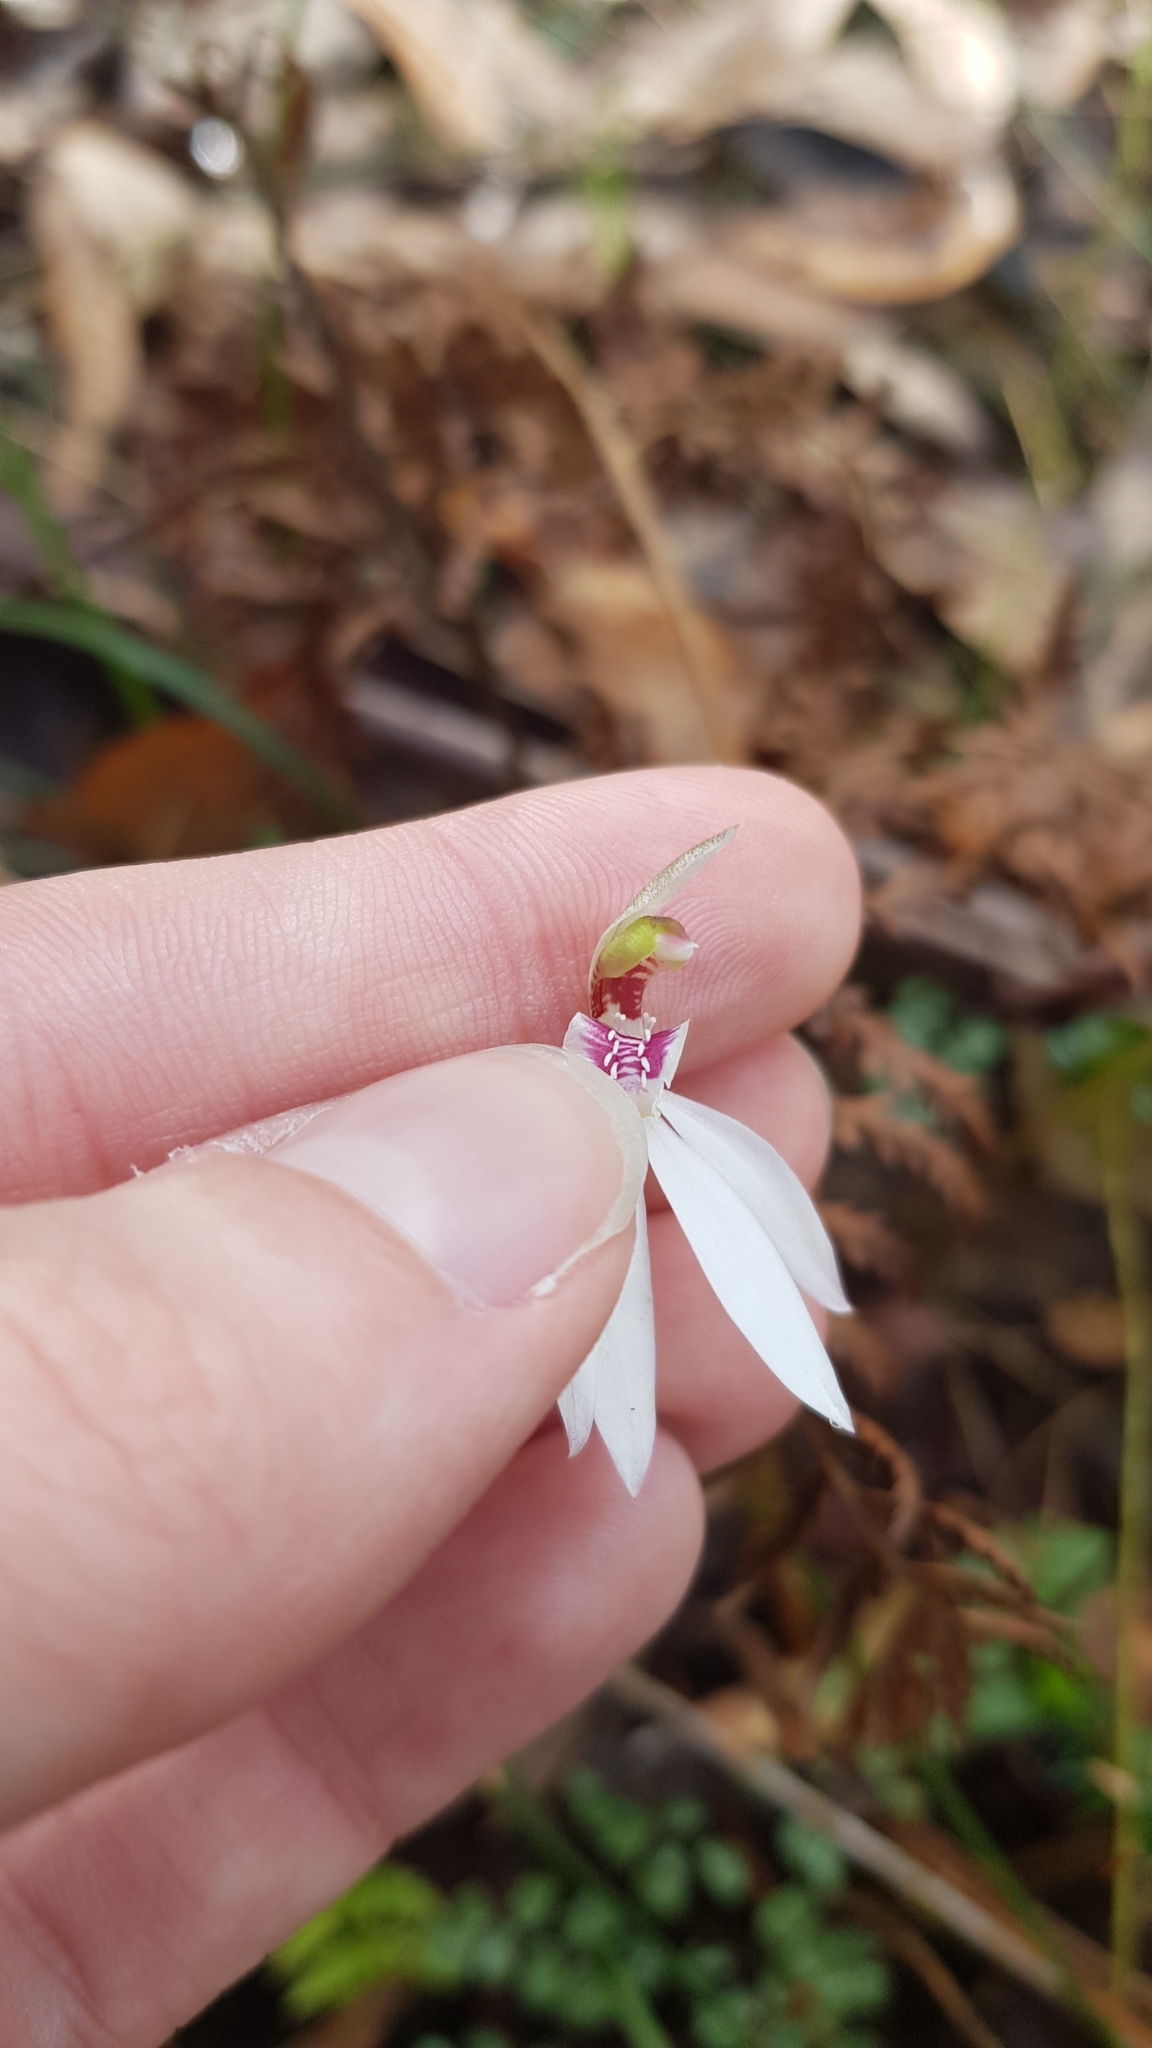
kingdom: Plantae
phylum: Tracheophyta
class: Liliopsida
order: Asparagales
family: Orchidaceae
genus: Caladenia
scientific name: Caladenia catenata
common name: White caladenia
